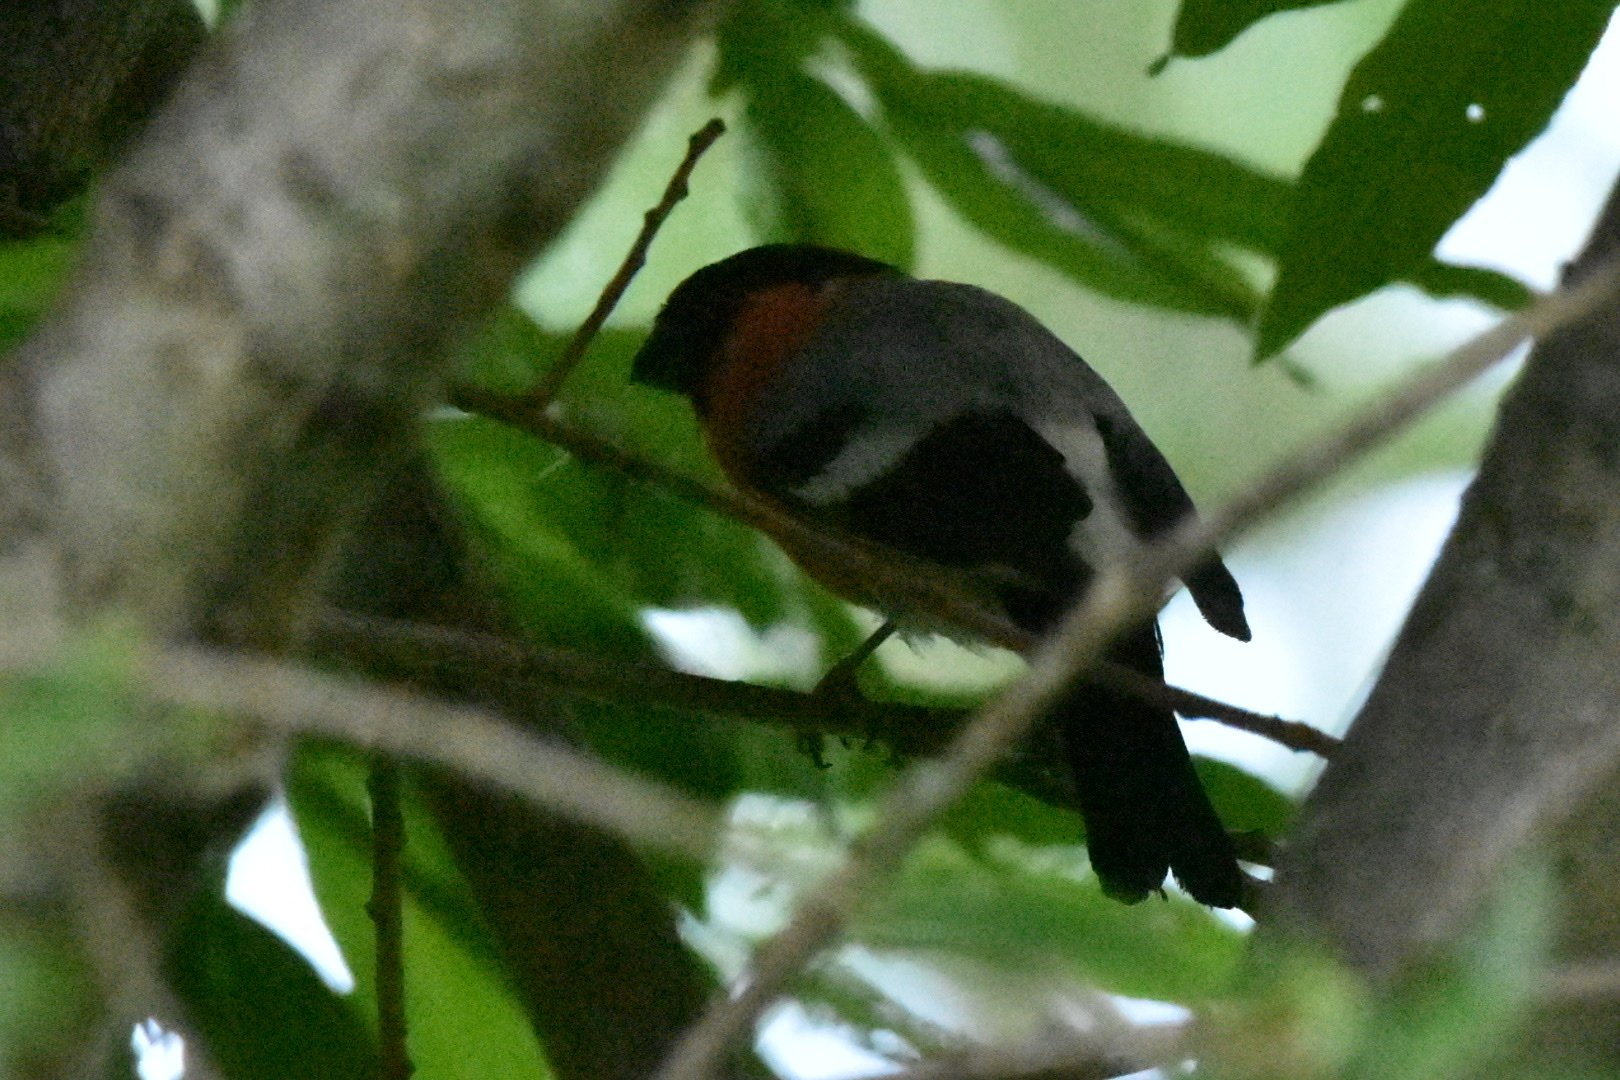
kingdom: Animalia
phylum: Chordata
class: Aves
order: Passeriformes
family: Fringillidae
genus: Pyrrhula
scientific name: Pyrrhula pyrrhula
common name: Eurasian bullfinch
